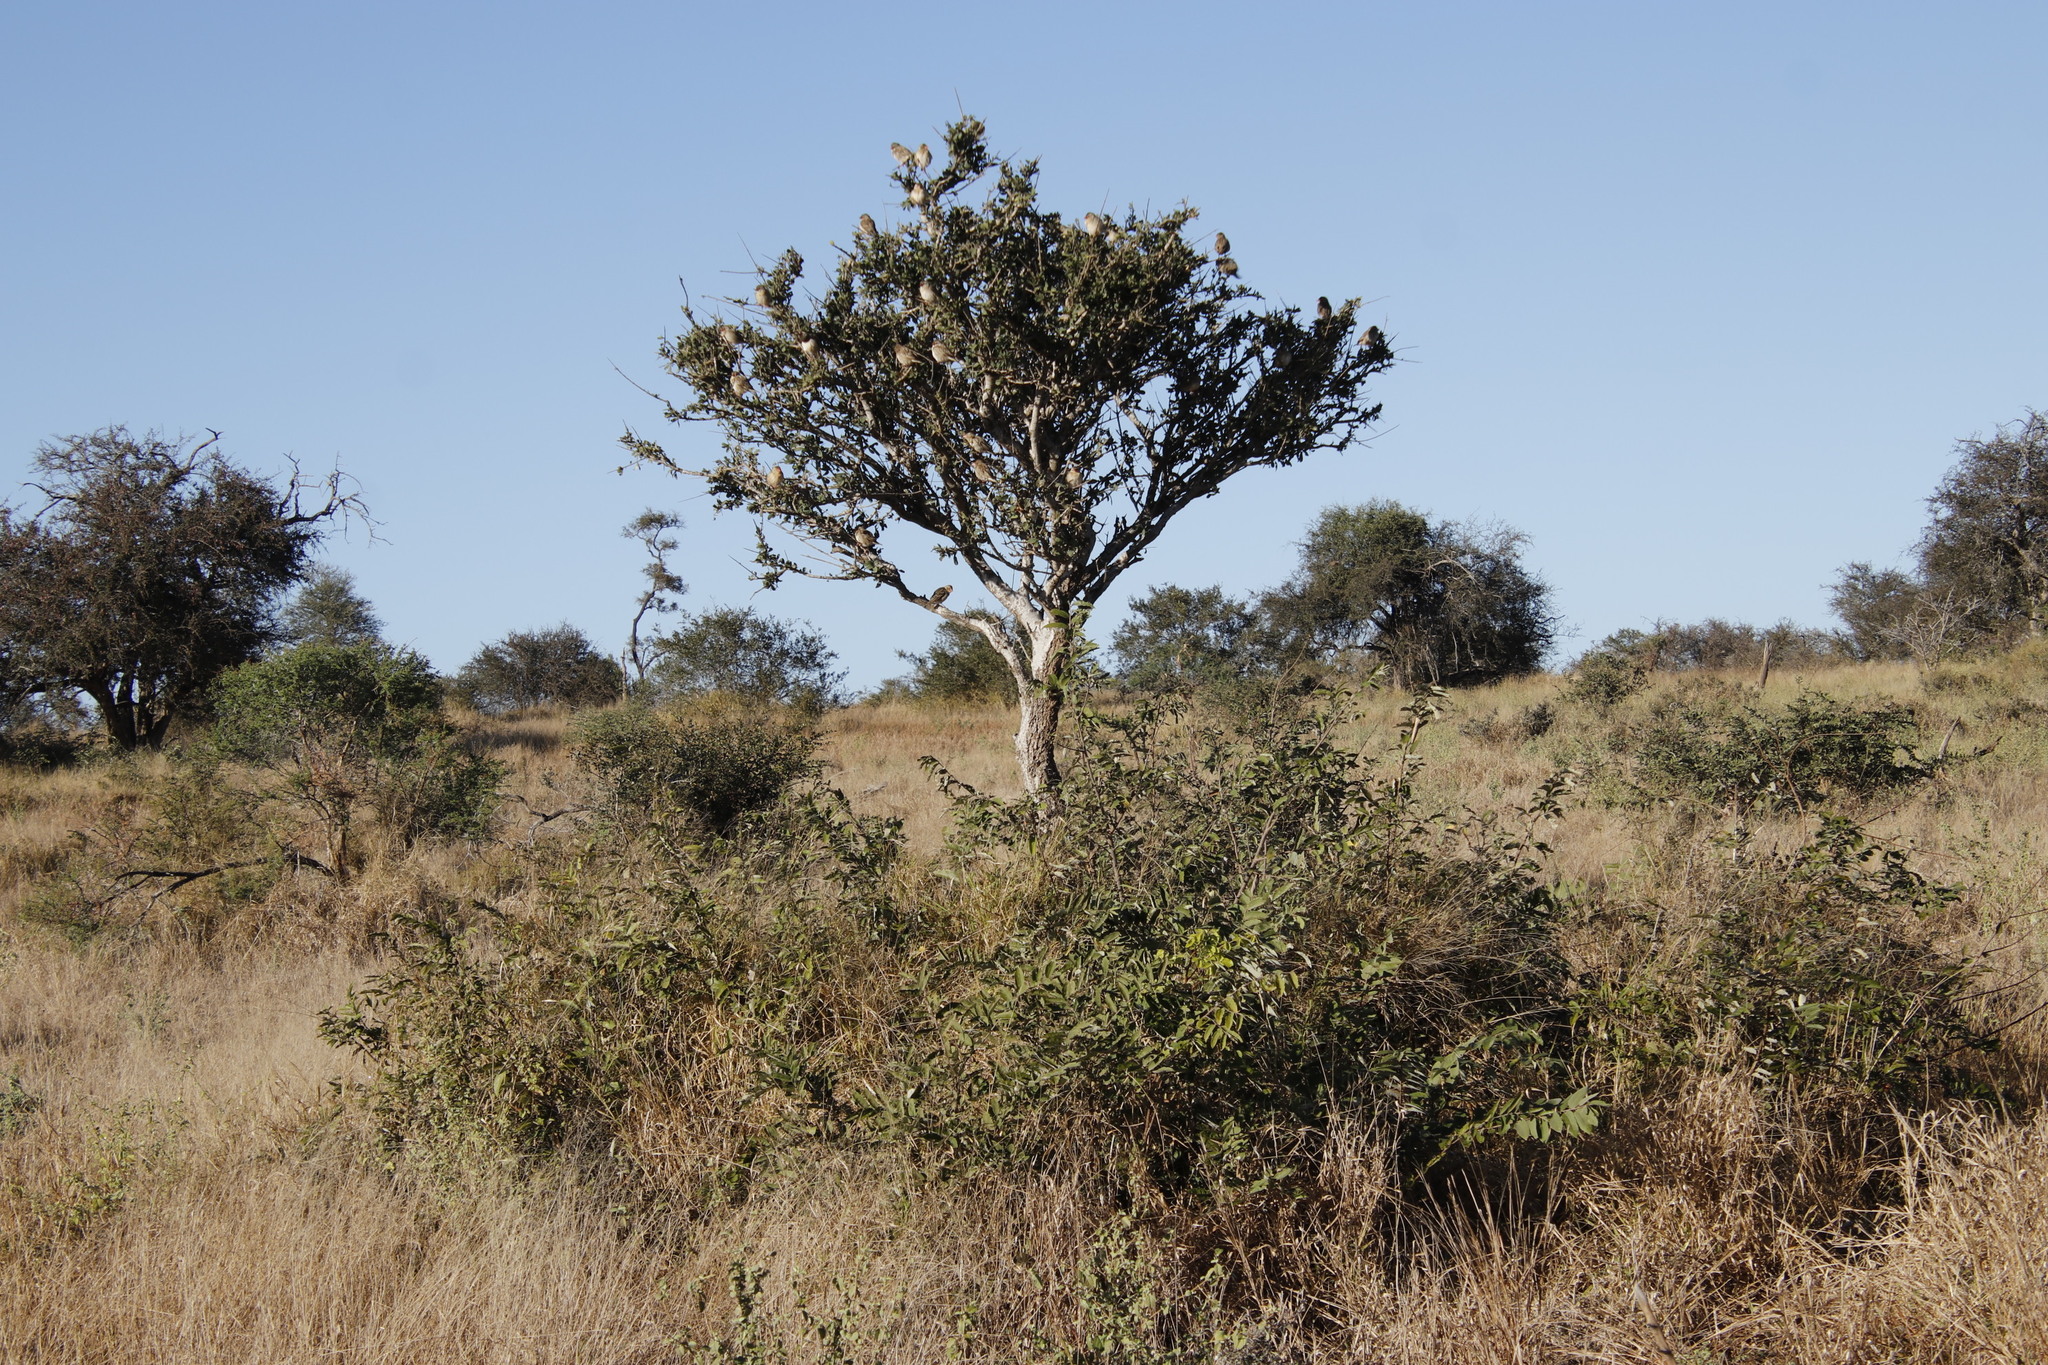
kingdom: Animalia
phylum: Chordata
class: Aves
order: Passeriformes
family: Ploceidae
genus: Quelea
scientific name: Quelea quelea
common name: Red-billed quelea
